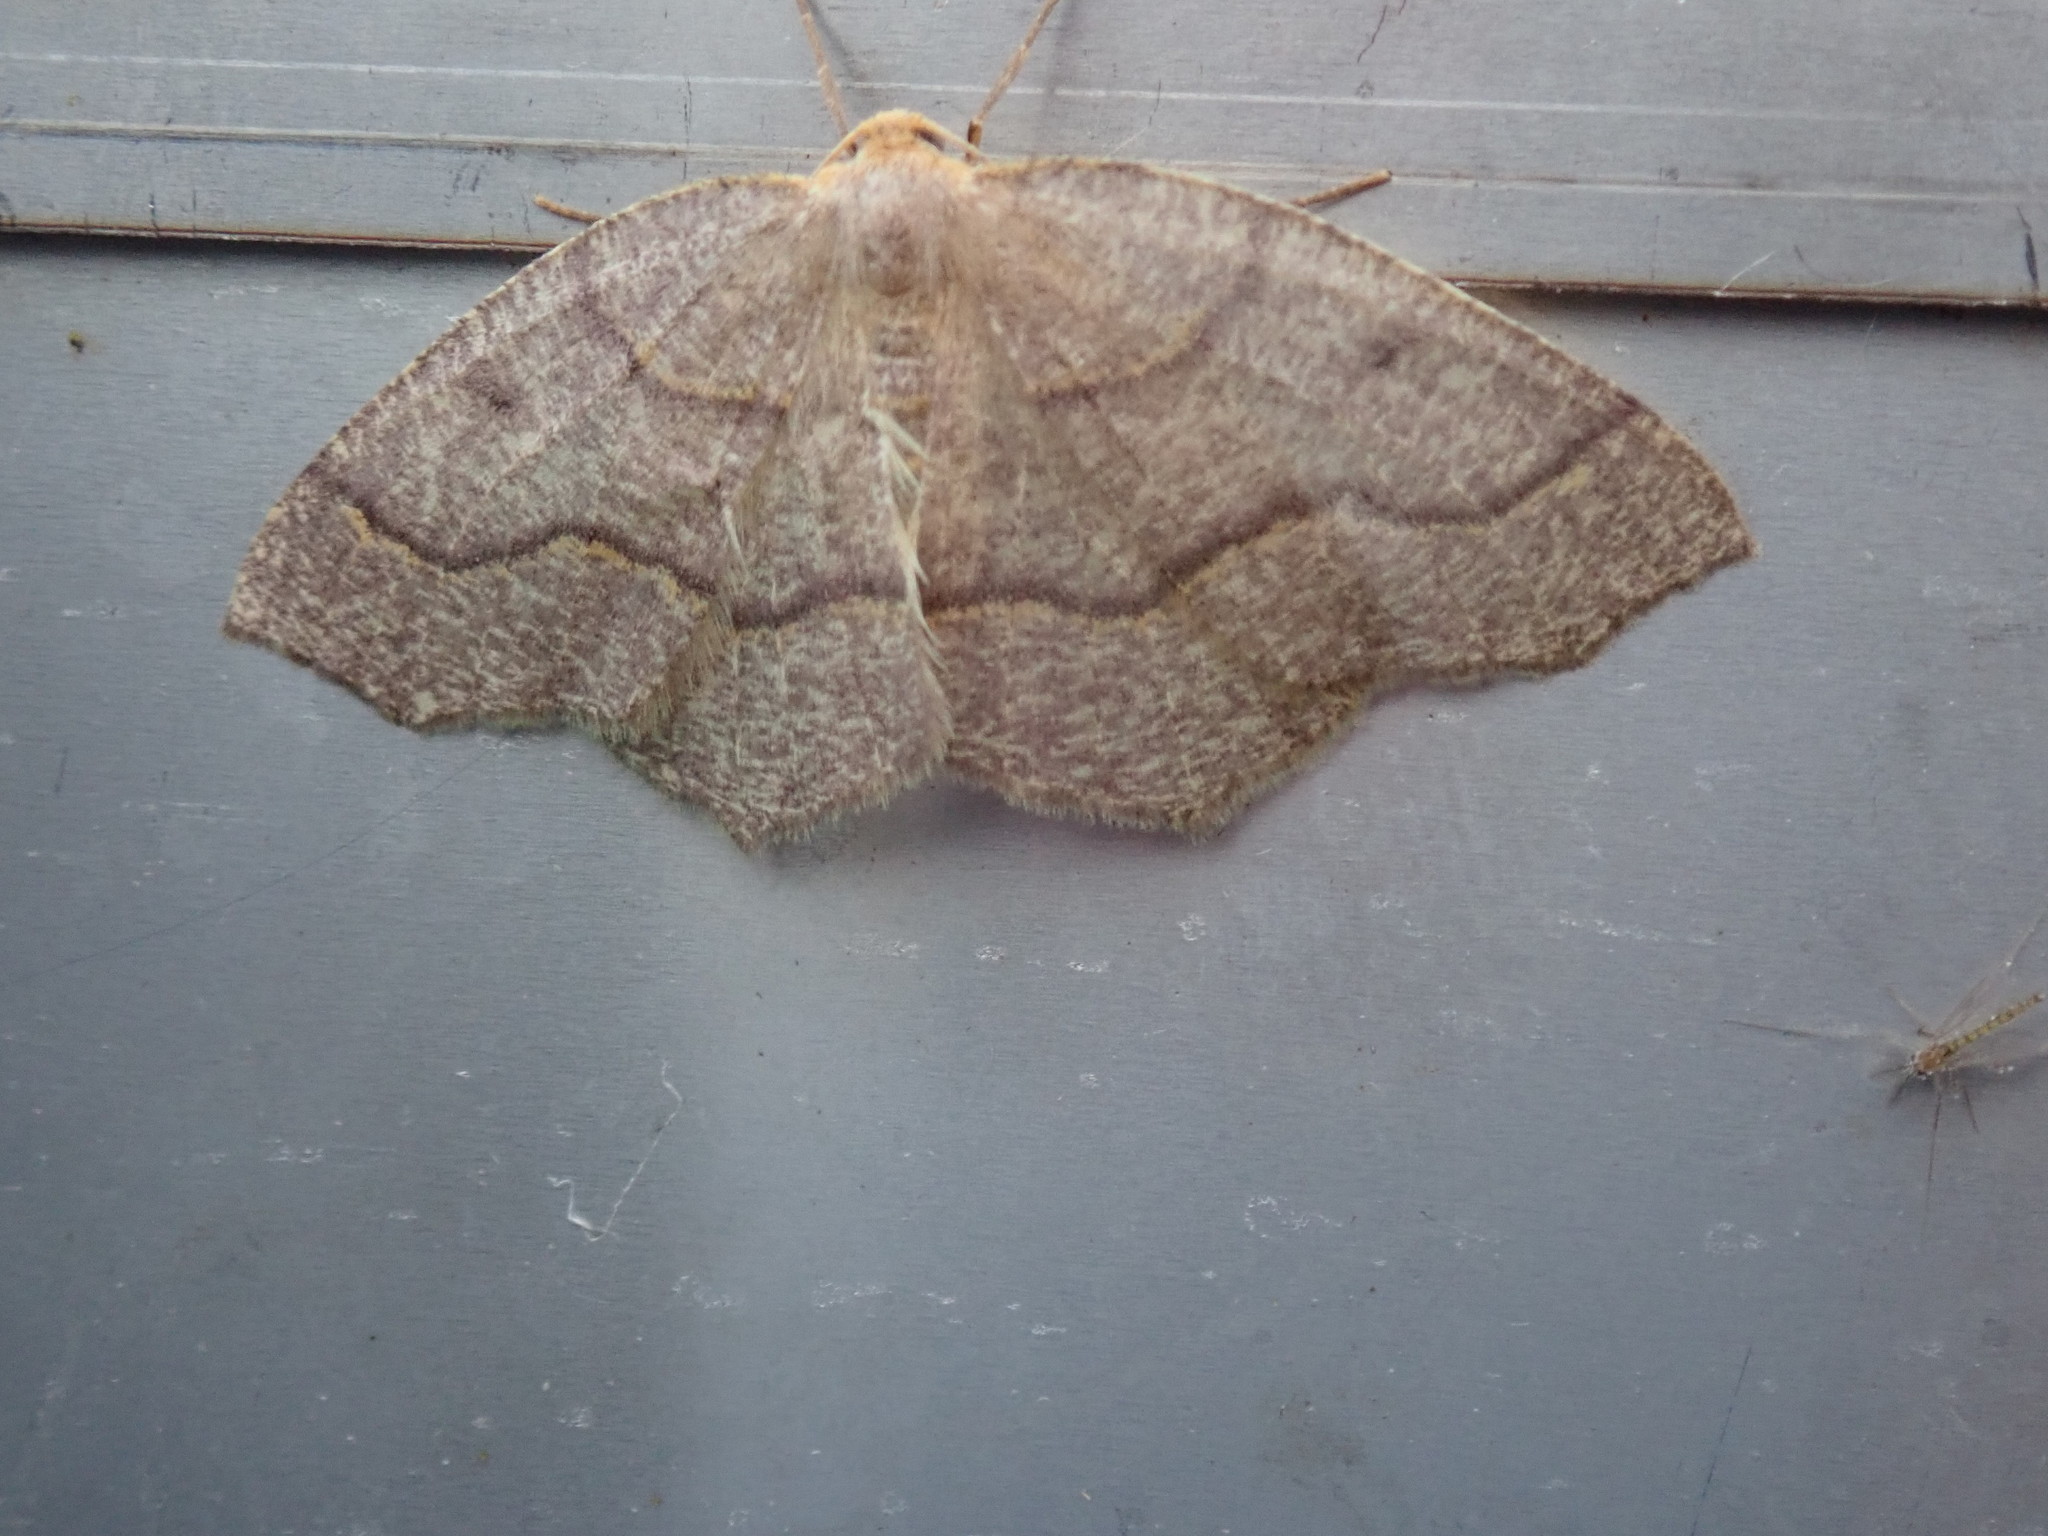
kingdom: Animalia
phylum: Arthropoda
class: Insecta
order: Lepidoptera
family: Geometridae
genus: Lambdina
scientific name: Lambdina fiscellaria
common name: Hemlock looper
